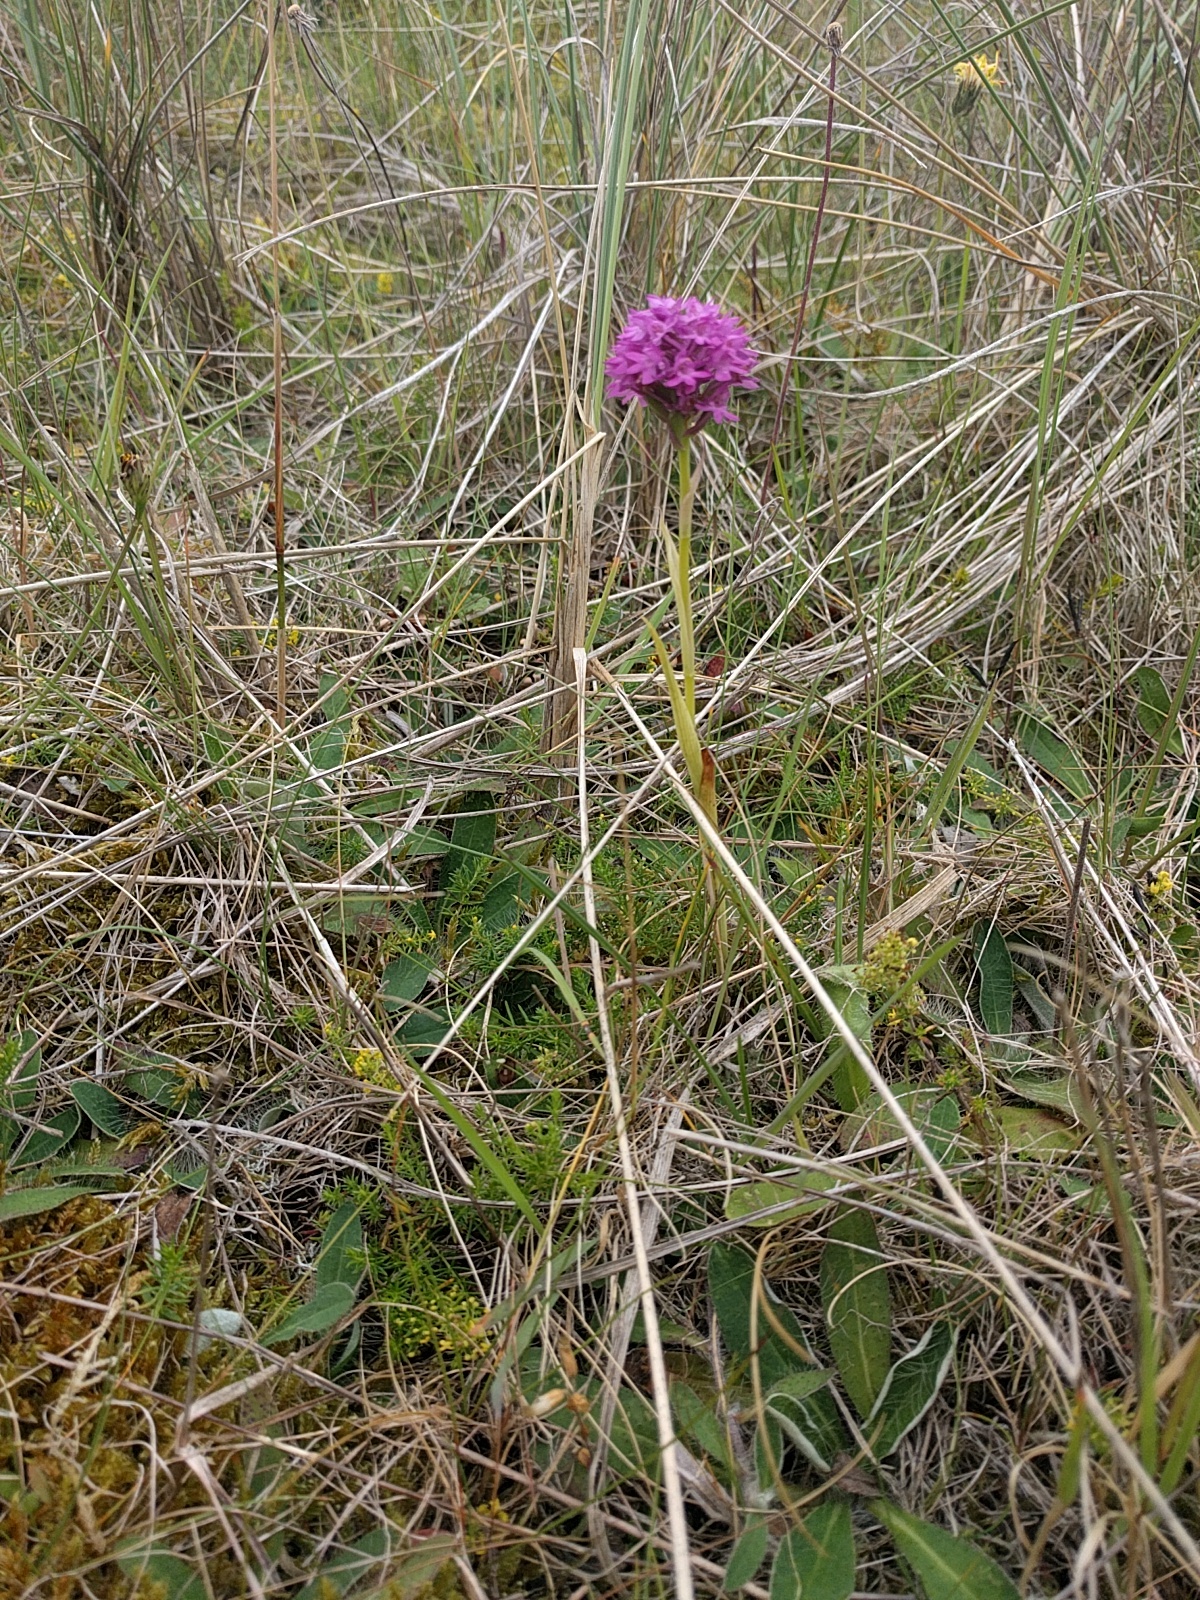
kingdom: Plantae
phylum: Tracheophyta
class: Liliopsida
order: Asparagales
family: Orchidaceae
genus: Anacamptis
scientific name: Anacamptis pyramidalis
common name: Pyramidal orchid
